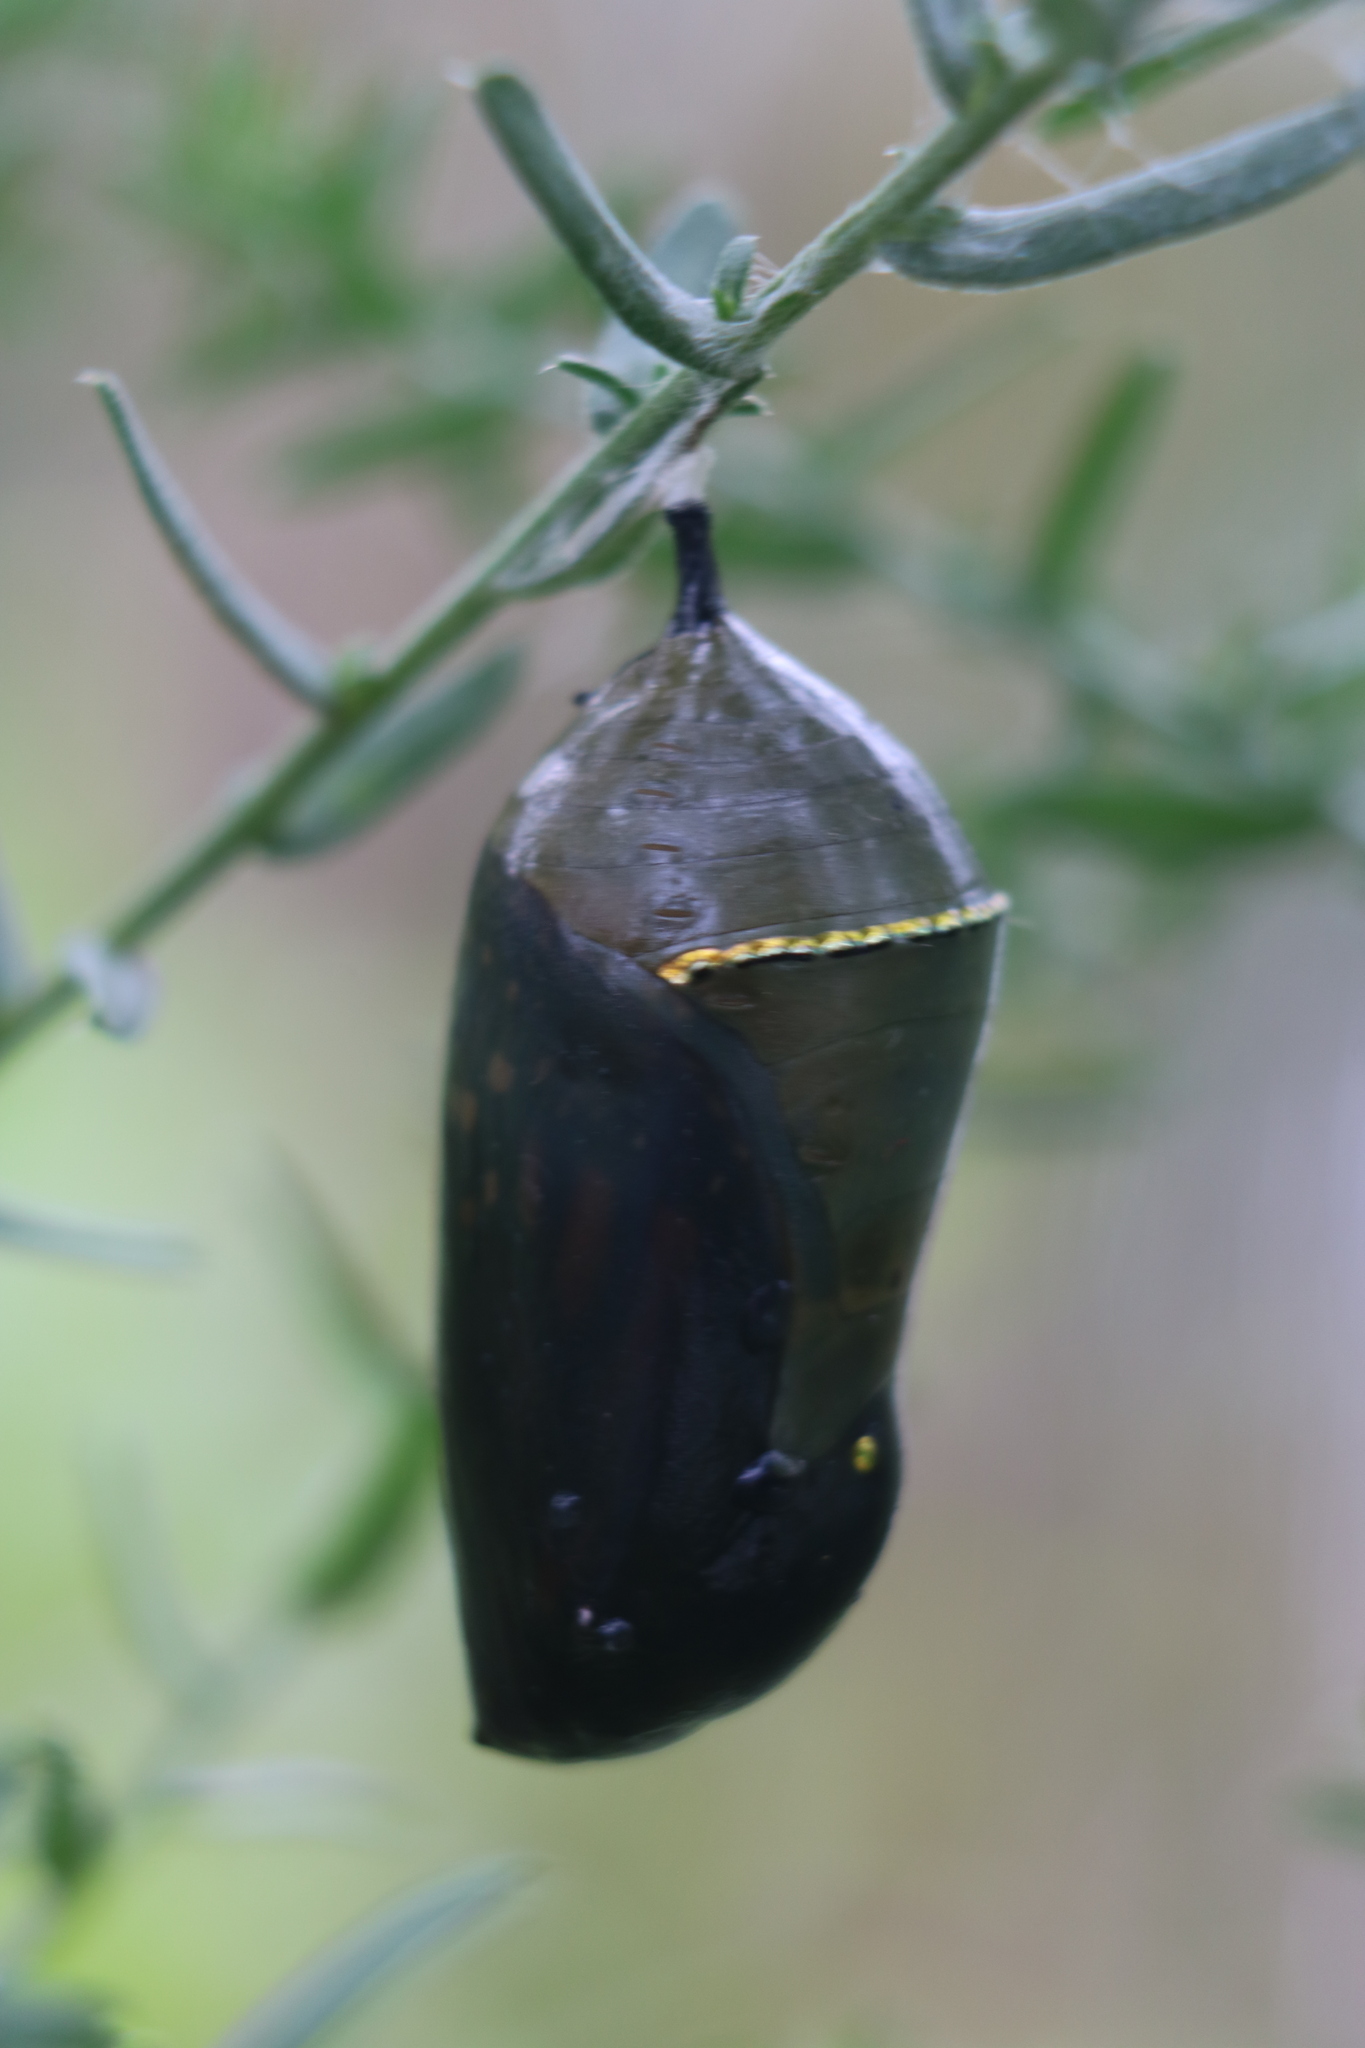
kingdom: Animalia
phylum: Arthropoda
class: Insecta
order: Lepidoptera
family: Nymphalidae
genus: Danaus
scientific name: Danaus plexippus
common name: Monarch
